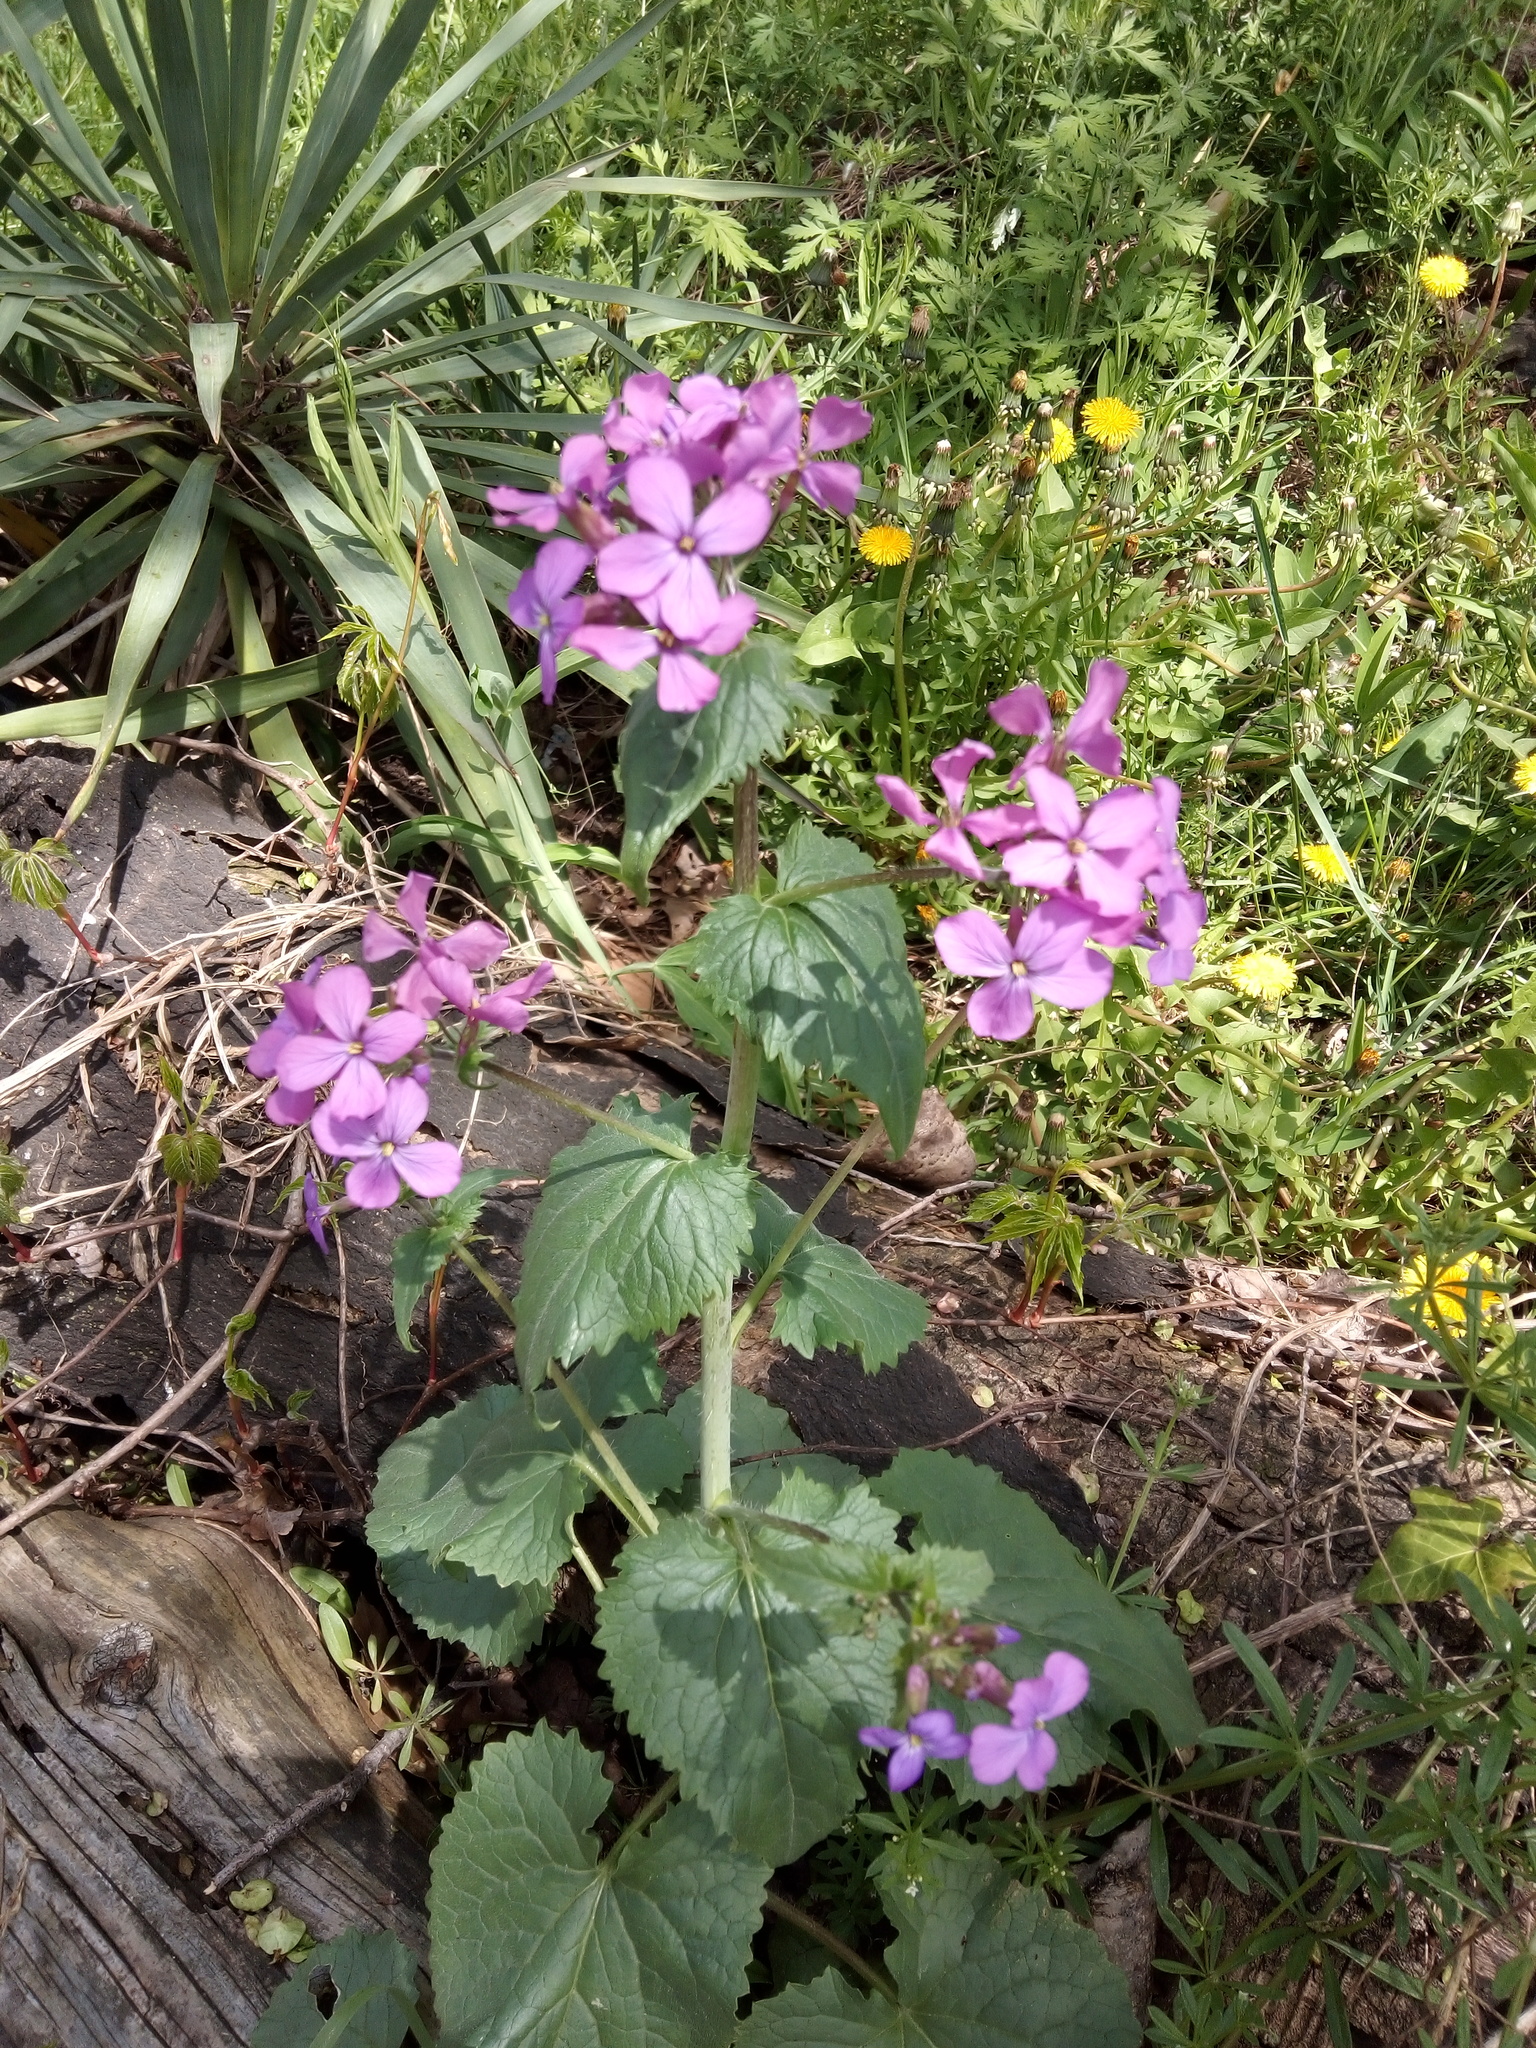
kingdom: Plantae
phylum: Tracheophyta
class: Magnoliopsida
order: Brassicales
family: Brassicaceae
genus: Lunaria
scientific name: Lunaria annua
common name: Honesty
